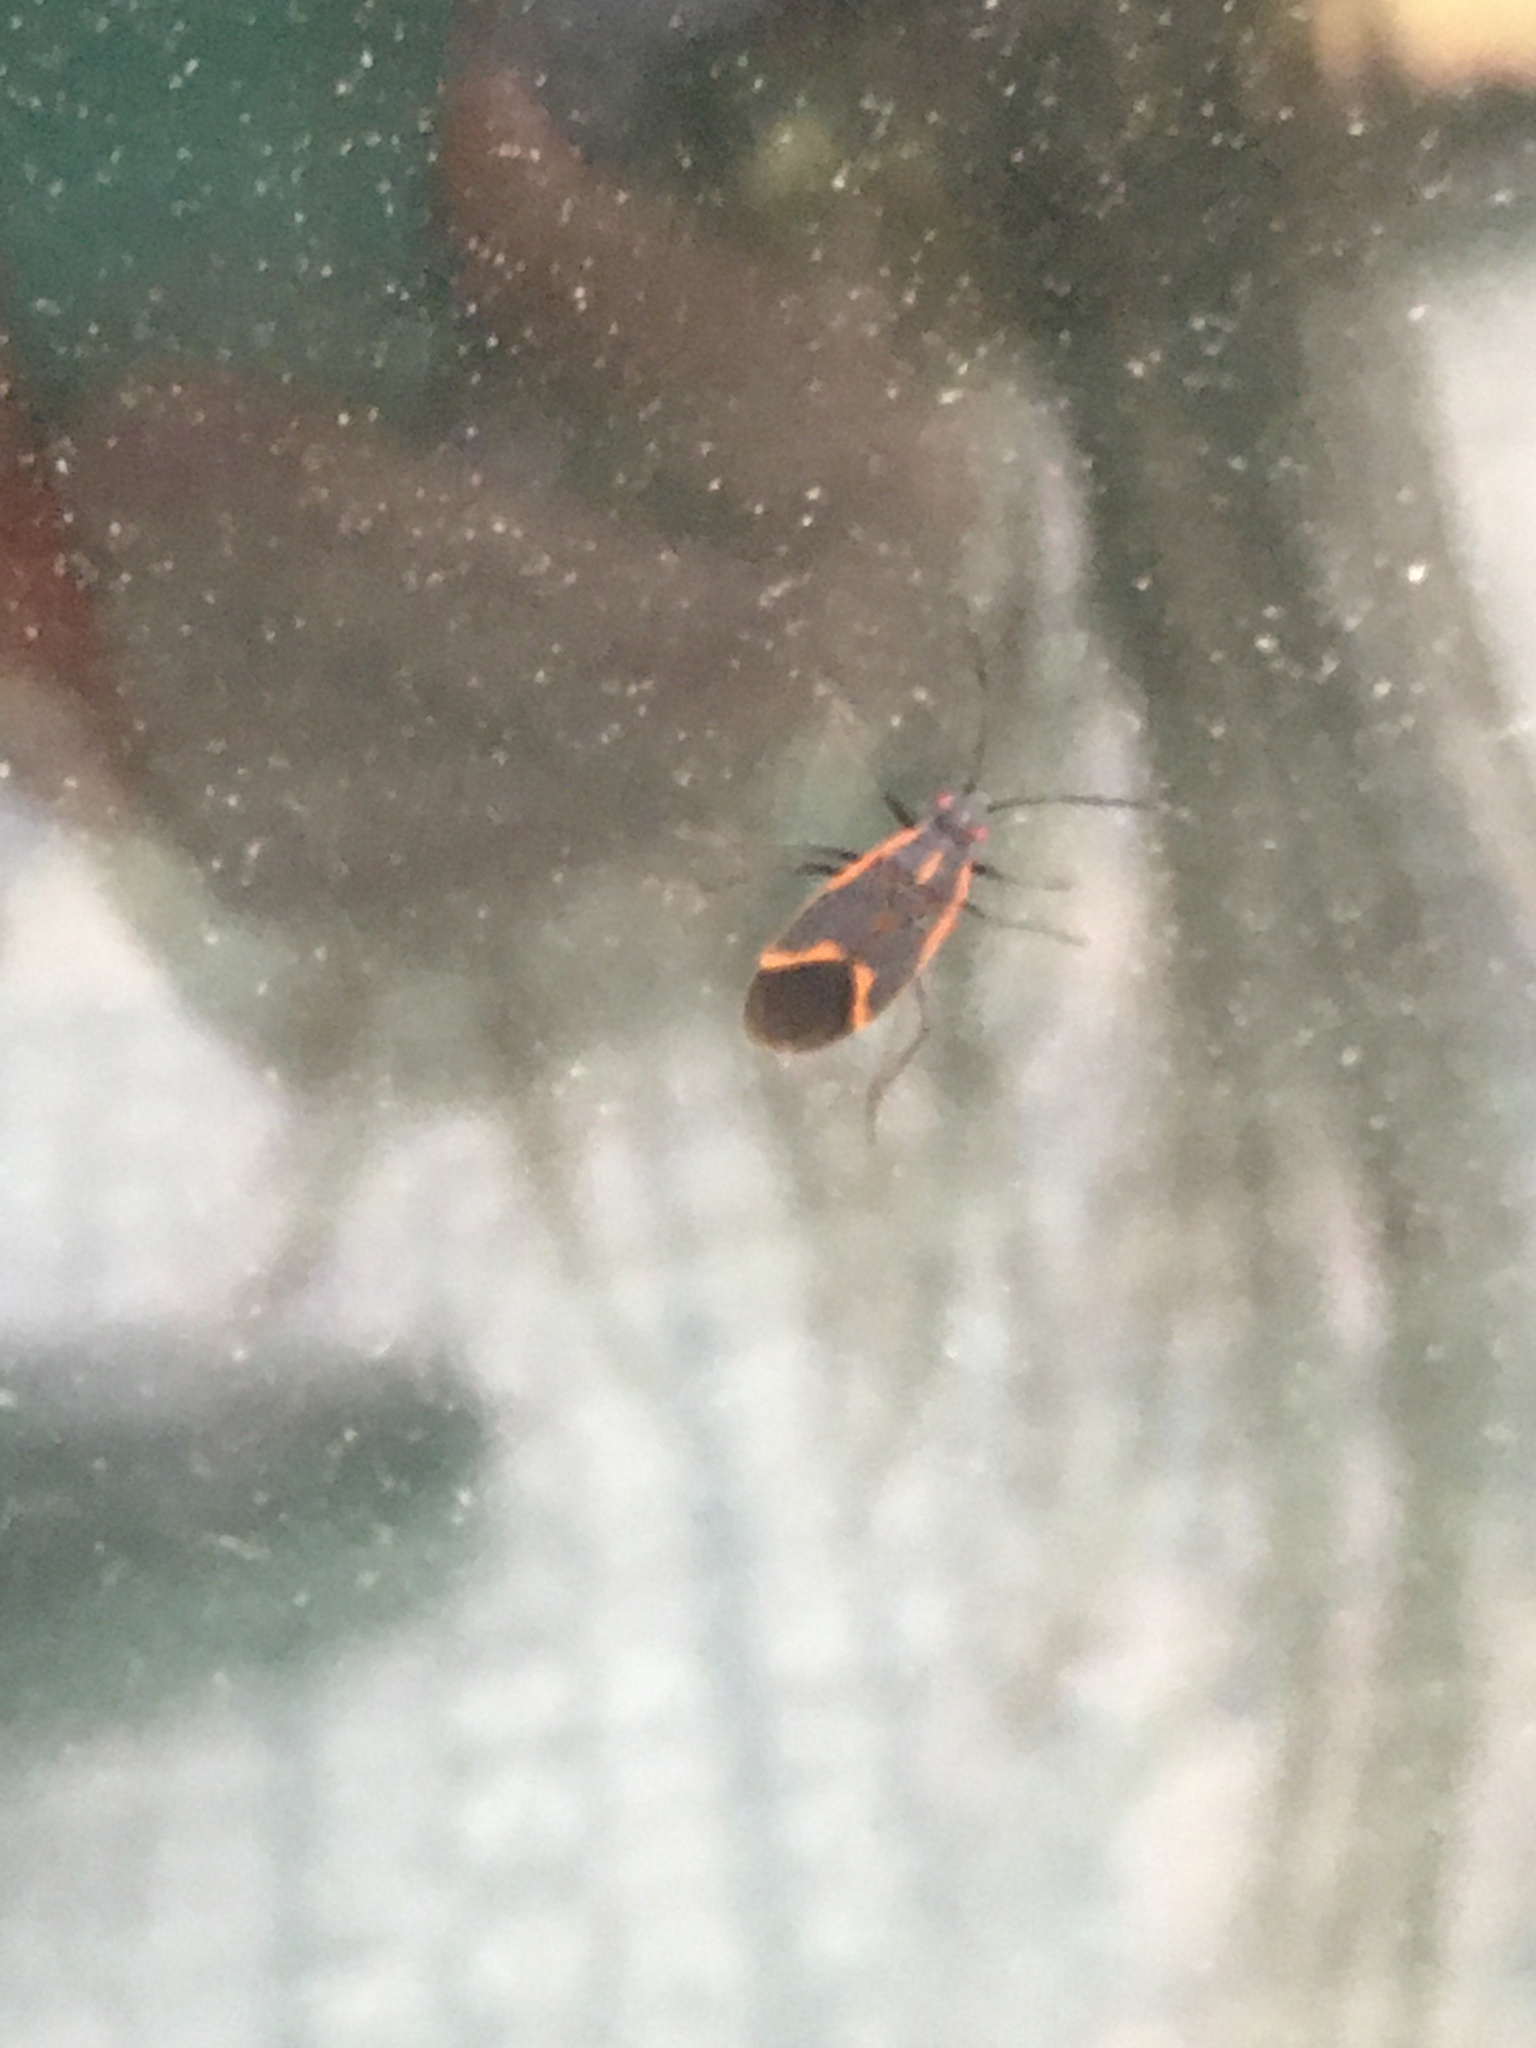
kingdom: Animalia
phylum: Arthropoda
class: Insecta
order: Hemiptera
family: Rhopalidae
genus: Boisea
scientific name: Boisea trivittata
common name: Boxelder bug
